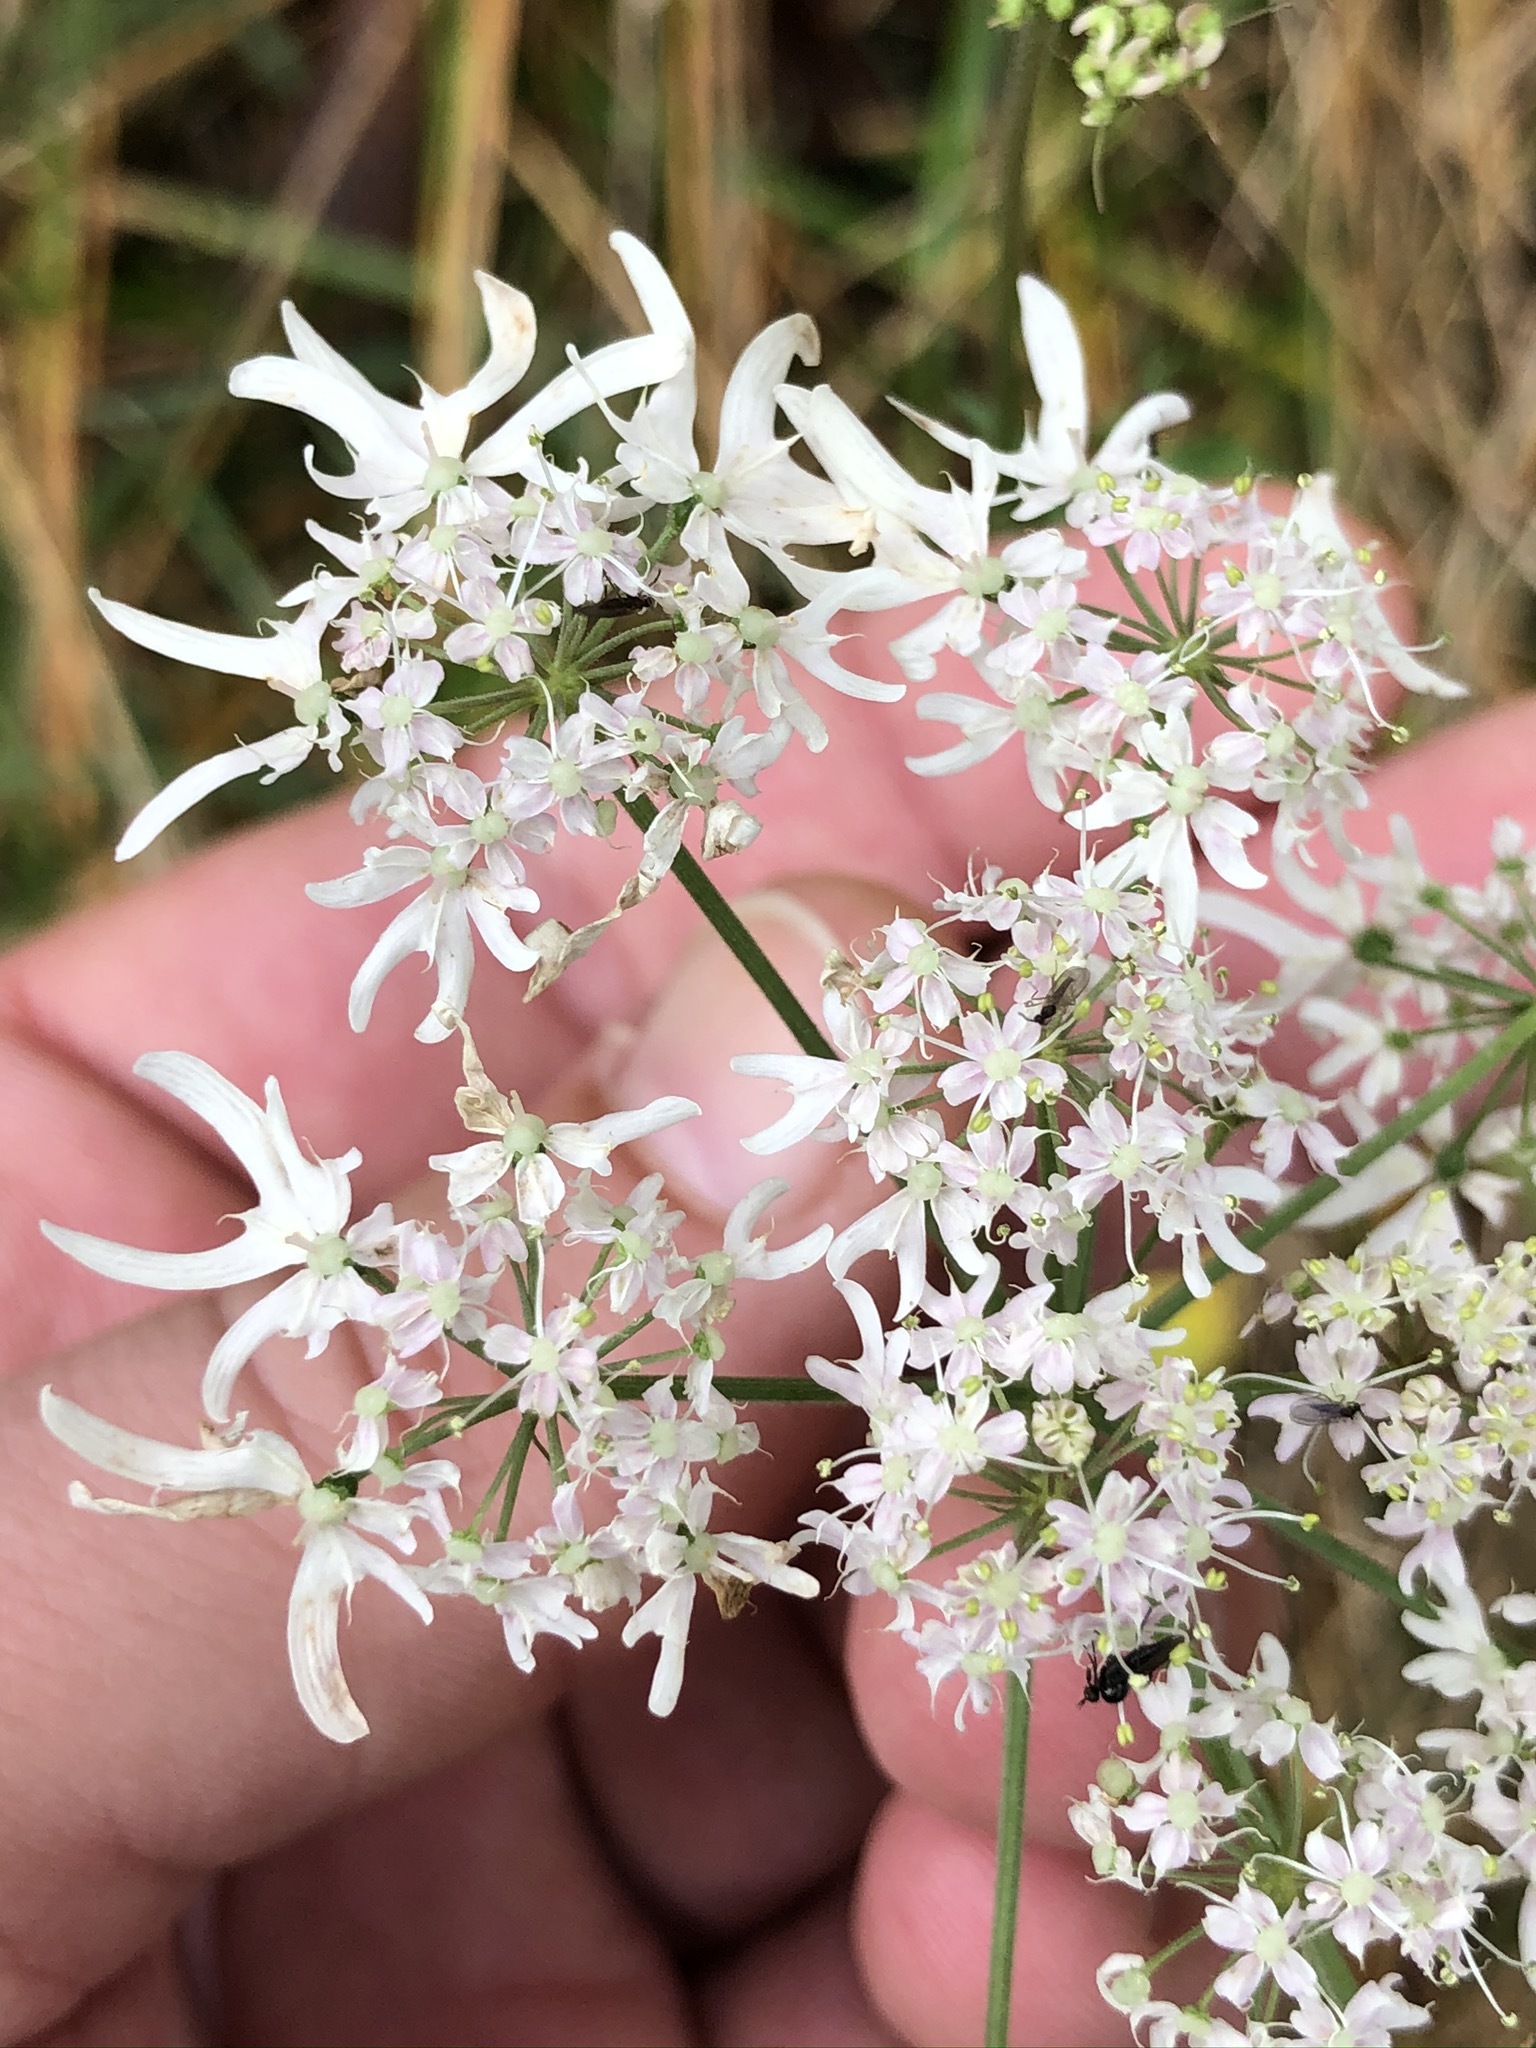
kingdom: Plantae
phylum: Tracheophyta
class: Magnoliopsida
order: Apiales
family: Apiaceae
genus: Heracleum
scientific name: Heracleum austriacum
